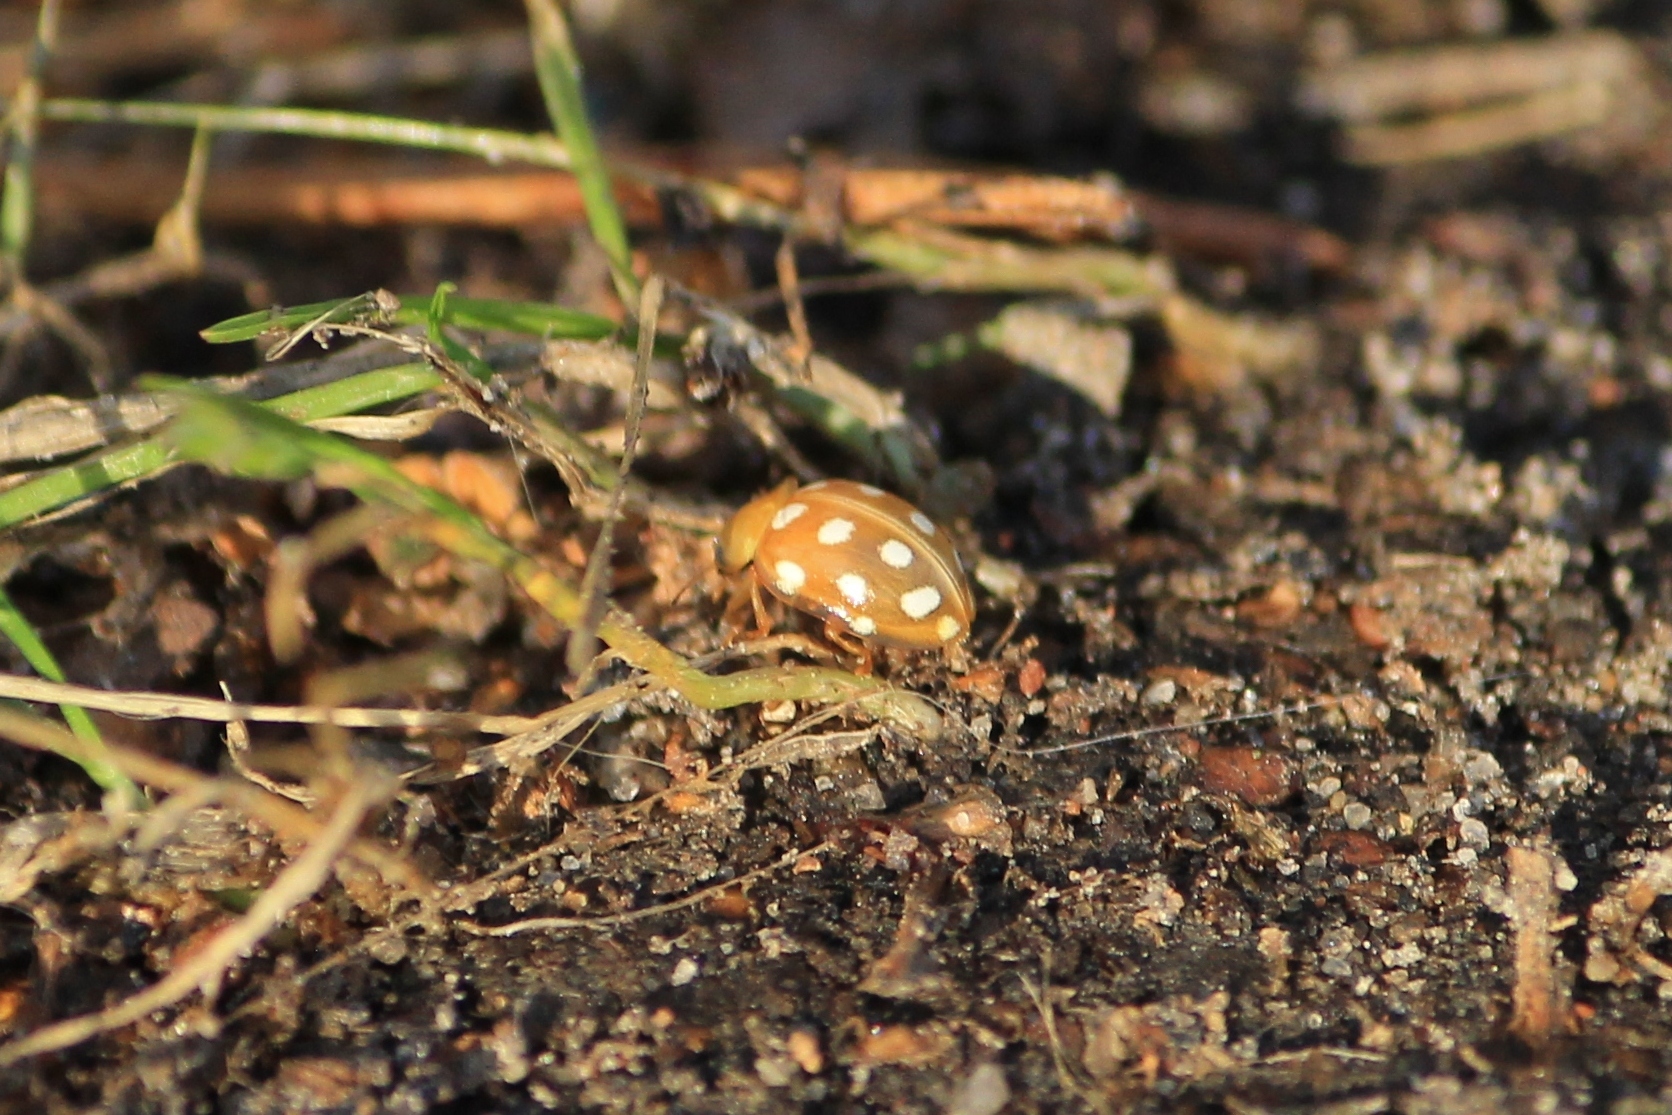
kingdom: Animalia
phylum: Arthropoda
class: Insecta
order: Coleoptera
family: Coccinellidae
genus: Halyzia
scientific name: Halyzia sedecimguttata
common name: Orange ladybird
